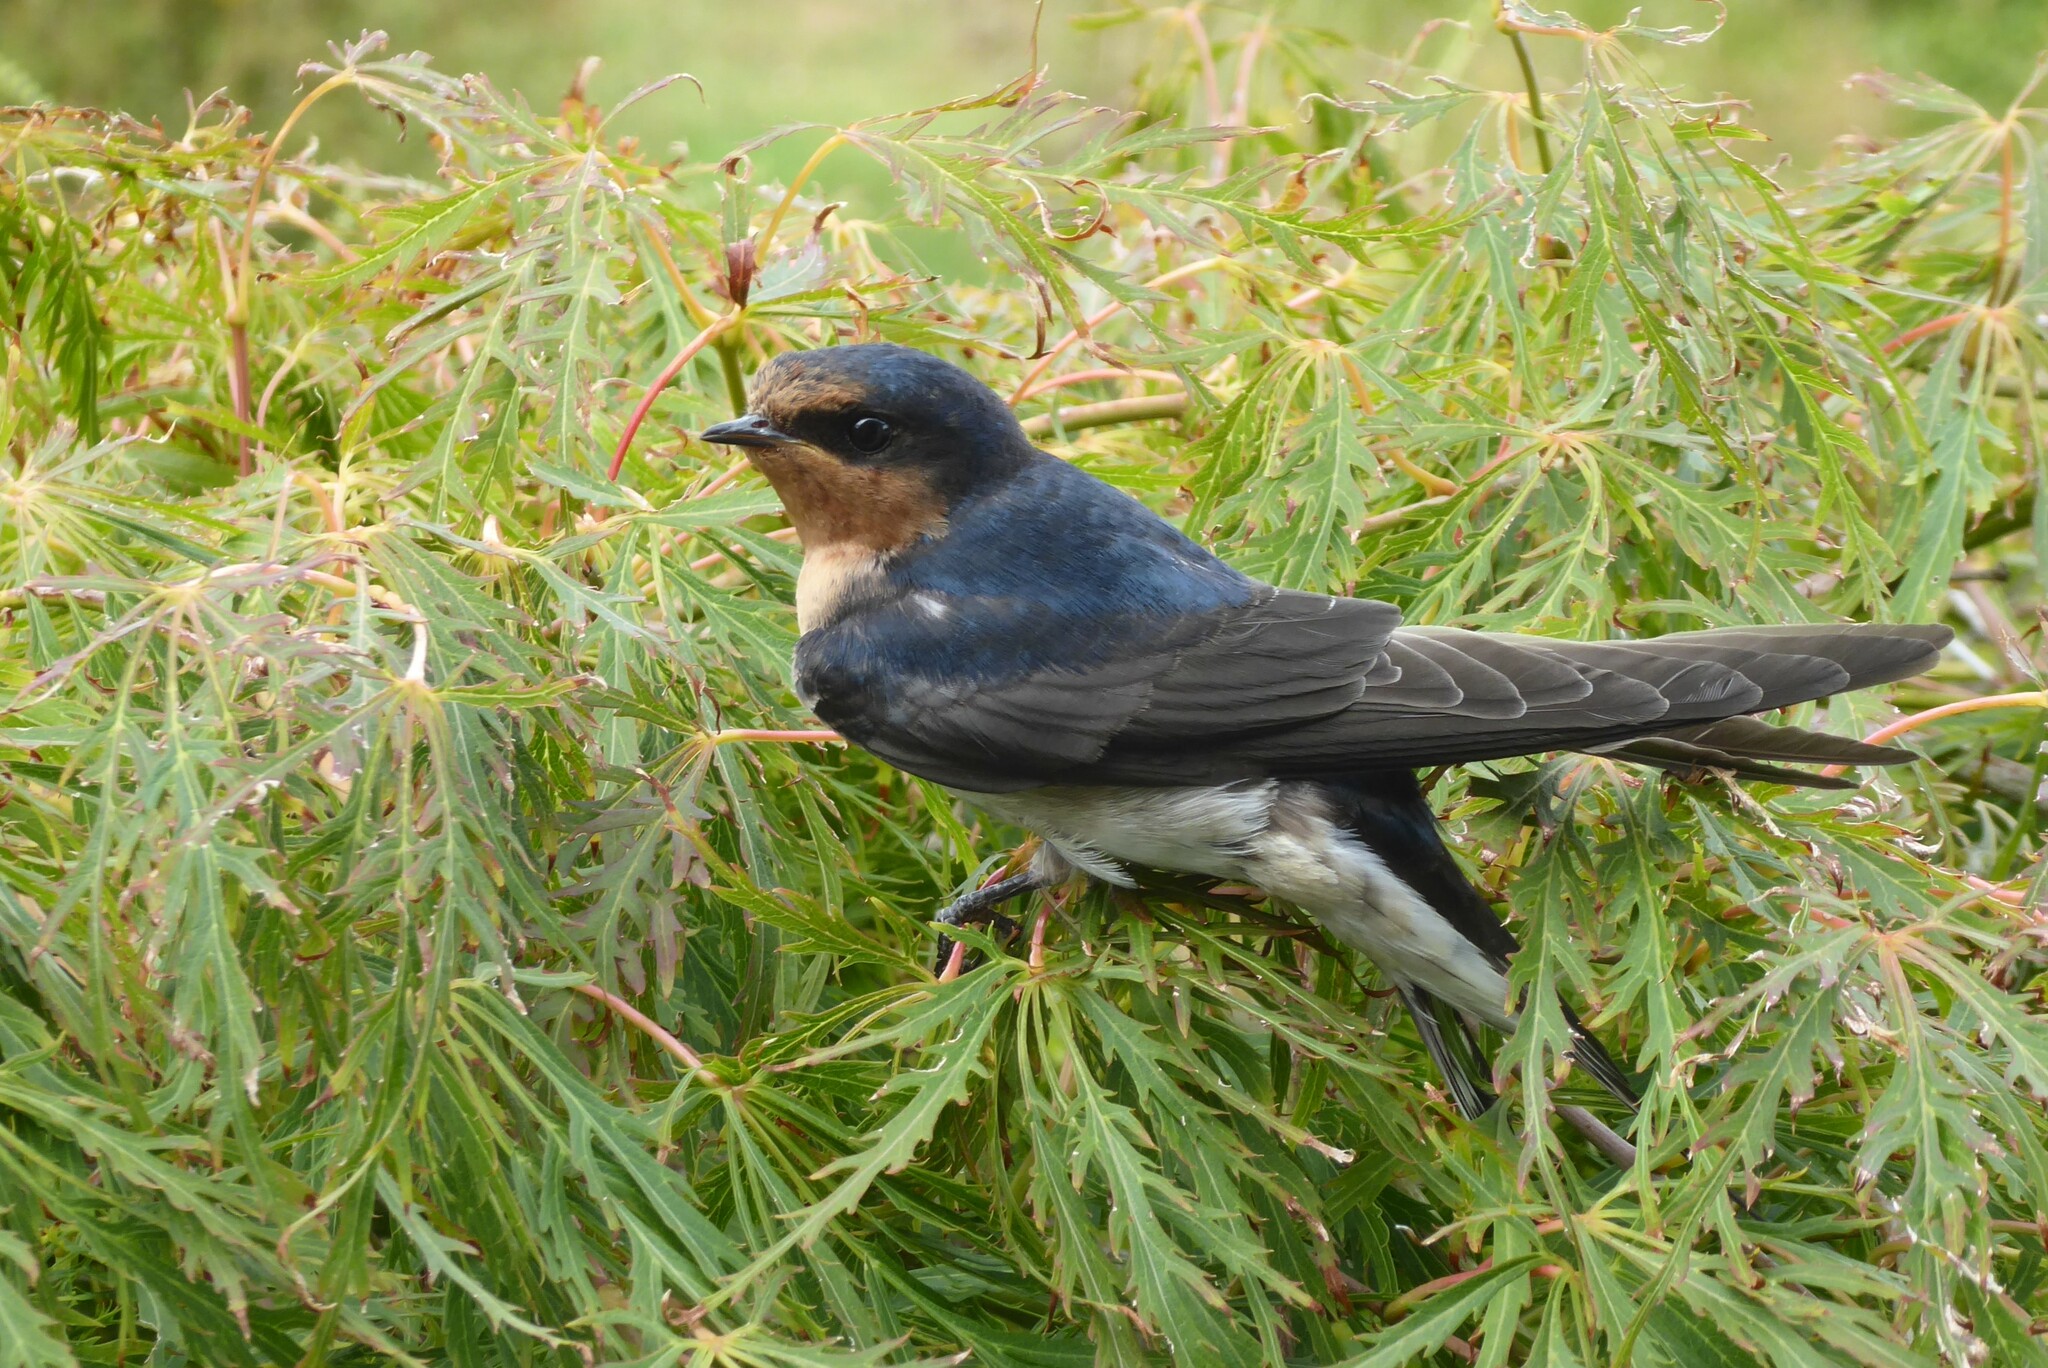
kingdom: Animalia
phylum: Chordata
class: Aves
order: Passeriformes
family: Hirundinidae
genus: Hirundo
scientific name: Hirundo neoxena
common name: Welcome swallow
